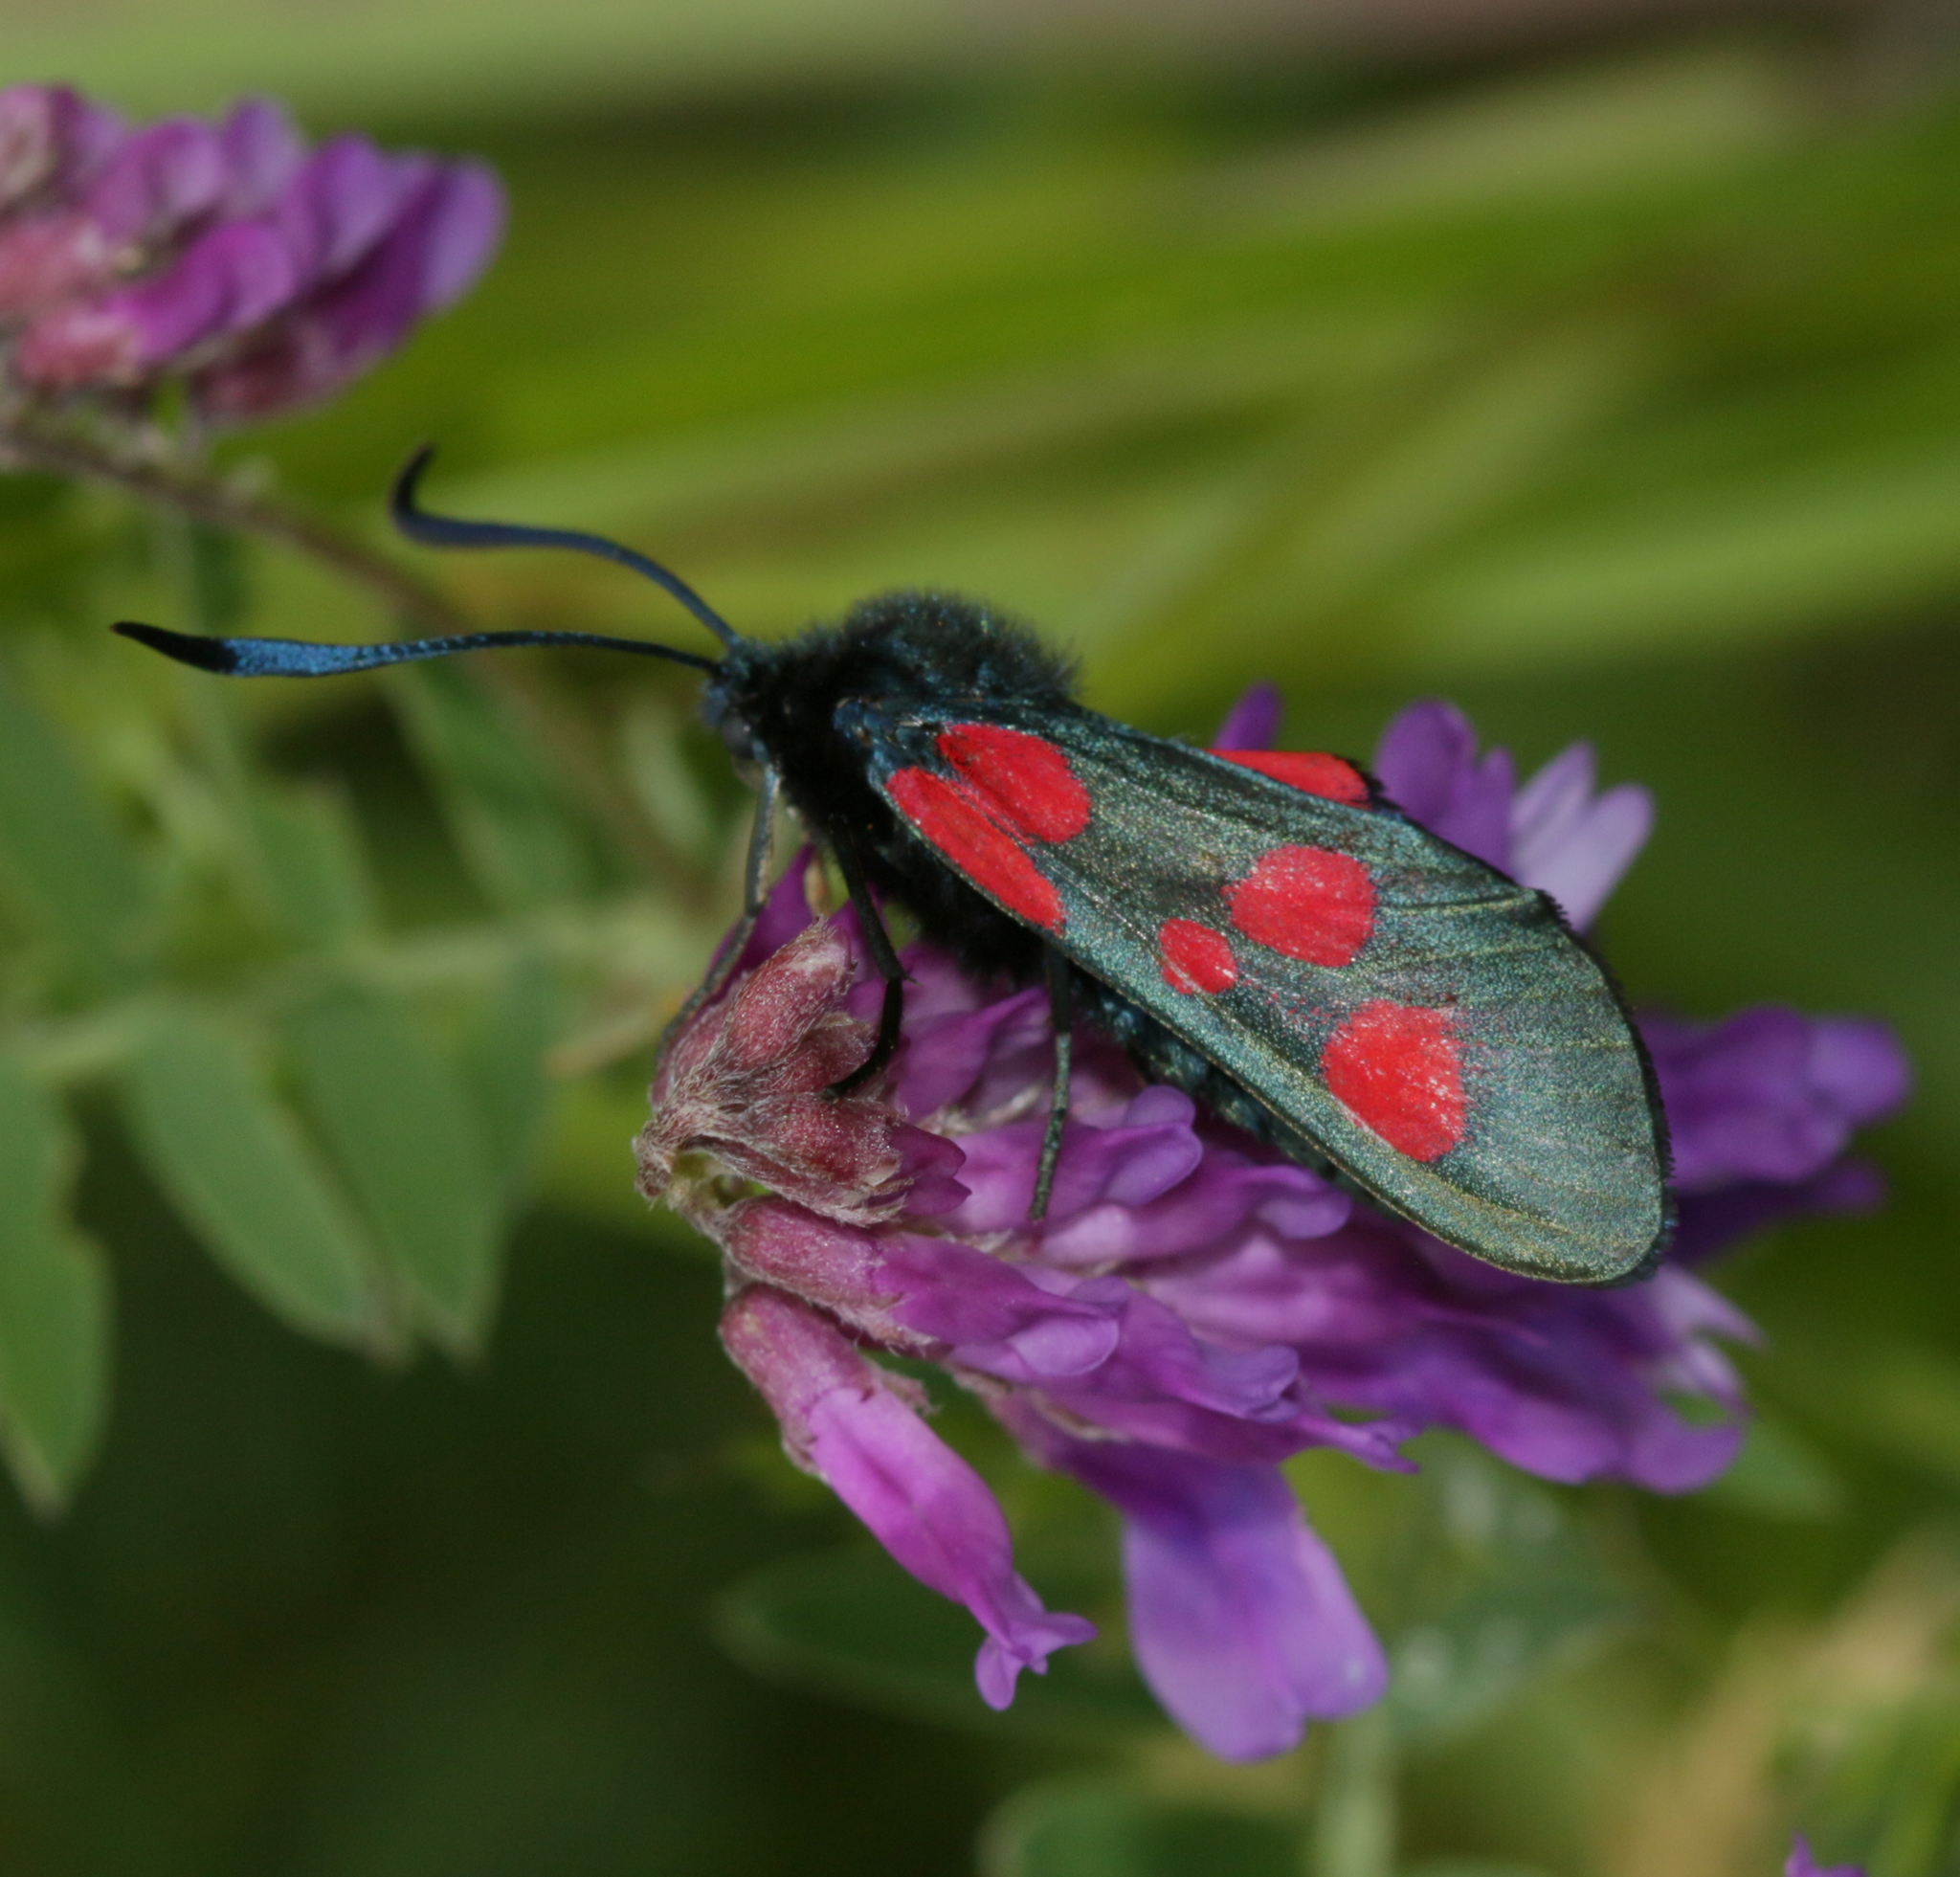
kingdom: Animalia
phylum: Arthropoda
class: Insecta
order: Lepidoptera
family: Zygaenidae
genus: Zygaena
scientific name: Zygaena lonicerae
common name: Narrow-bordered five-spot burnet
